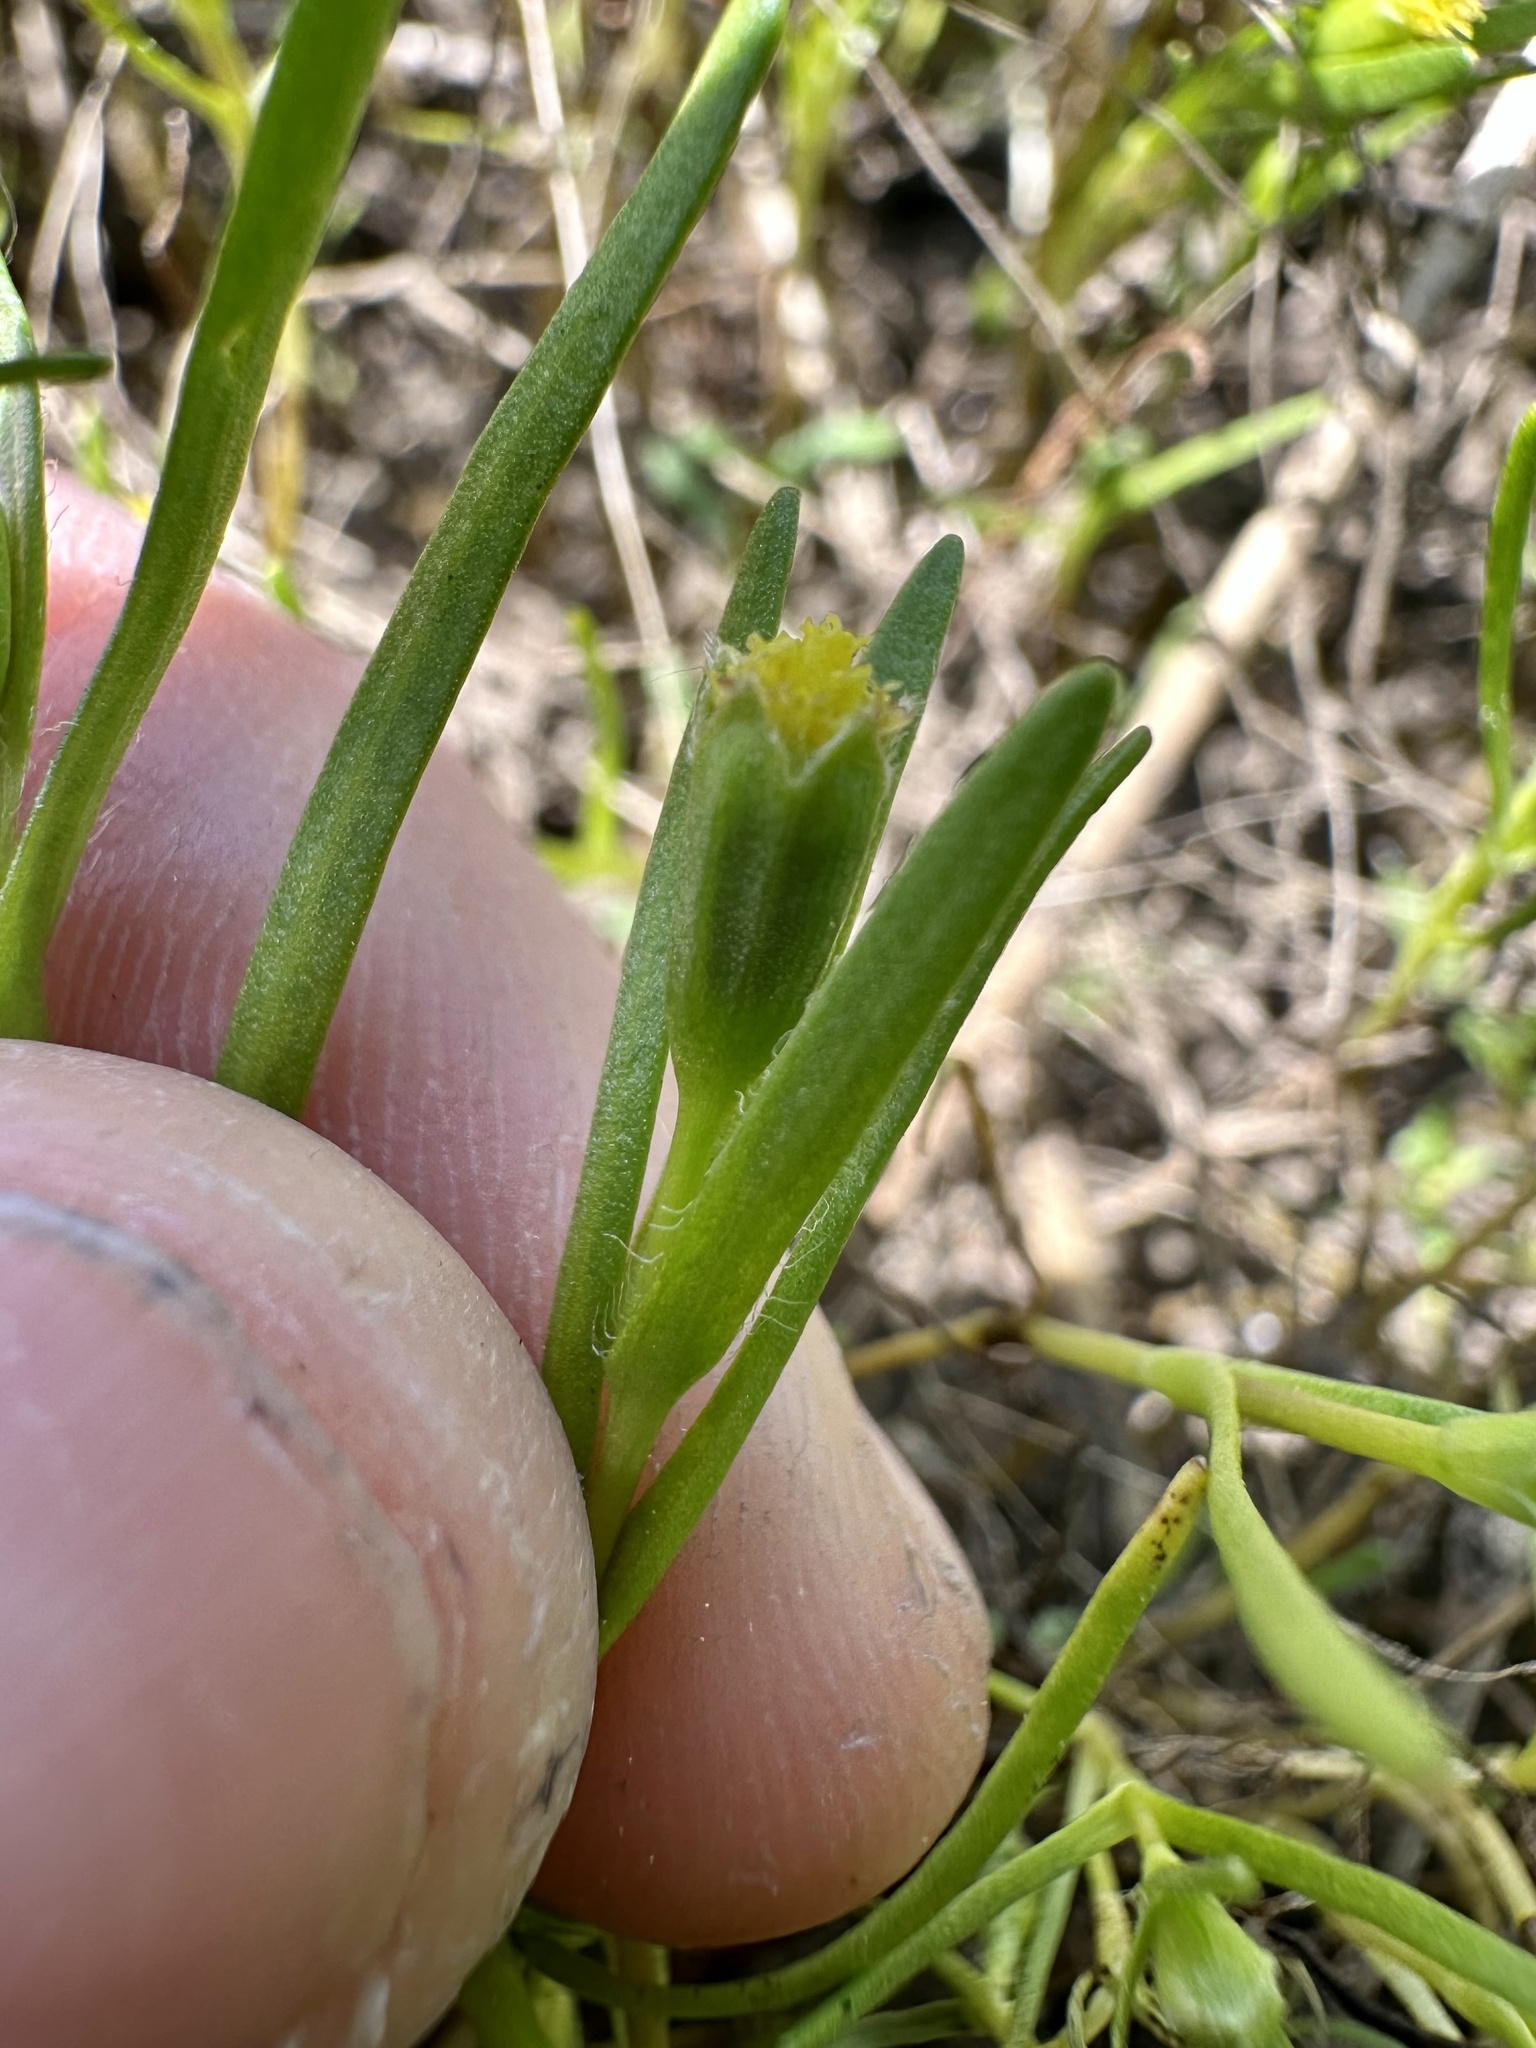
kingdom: Plantae
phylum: Tracheophyta
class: Magnoliopsida
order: Asterales
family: Asteraceae
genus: Lasthenia
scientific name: Lasthenia glaberrima
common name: Smooth goldfields
